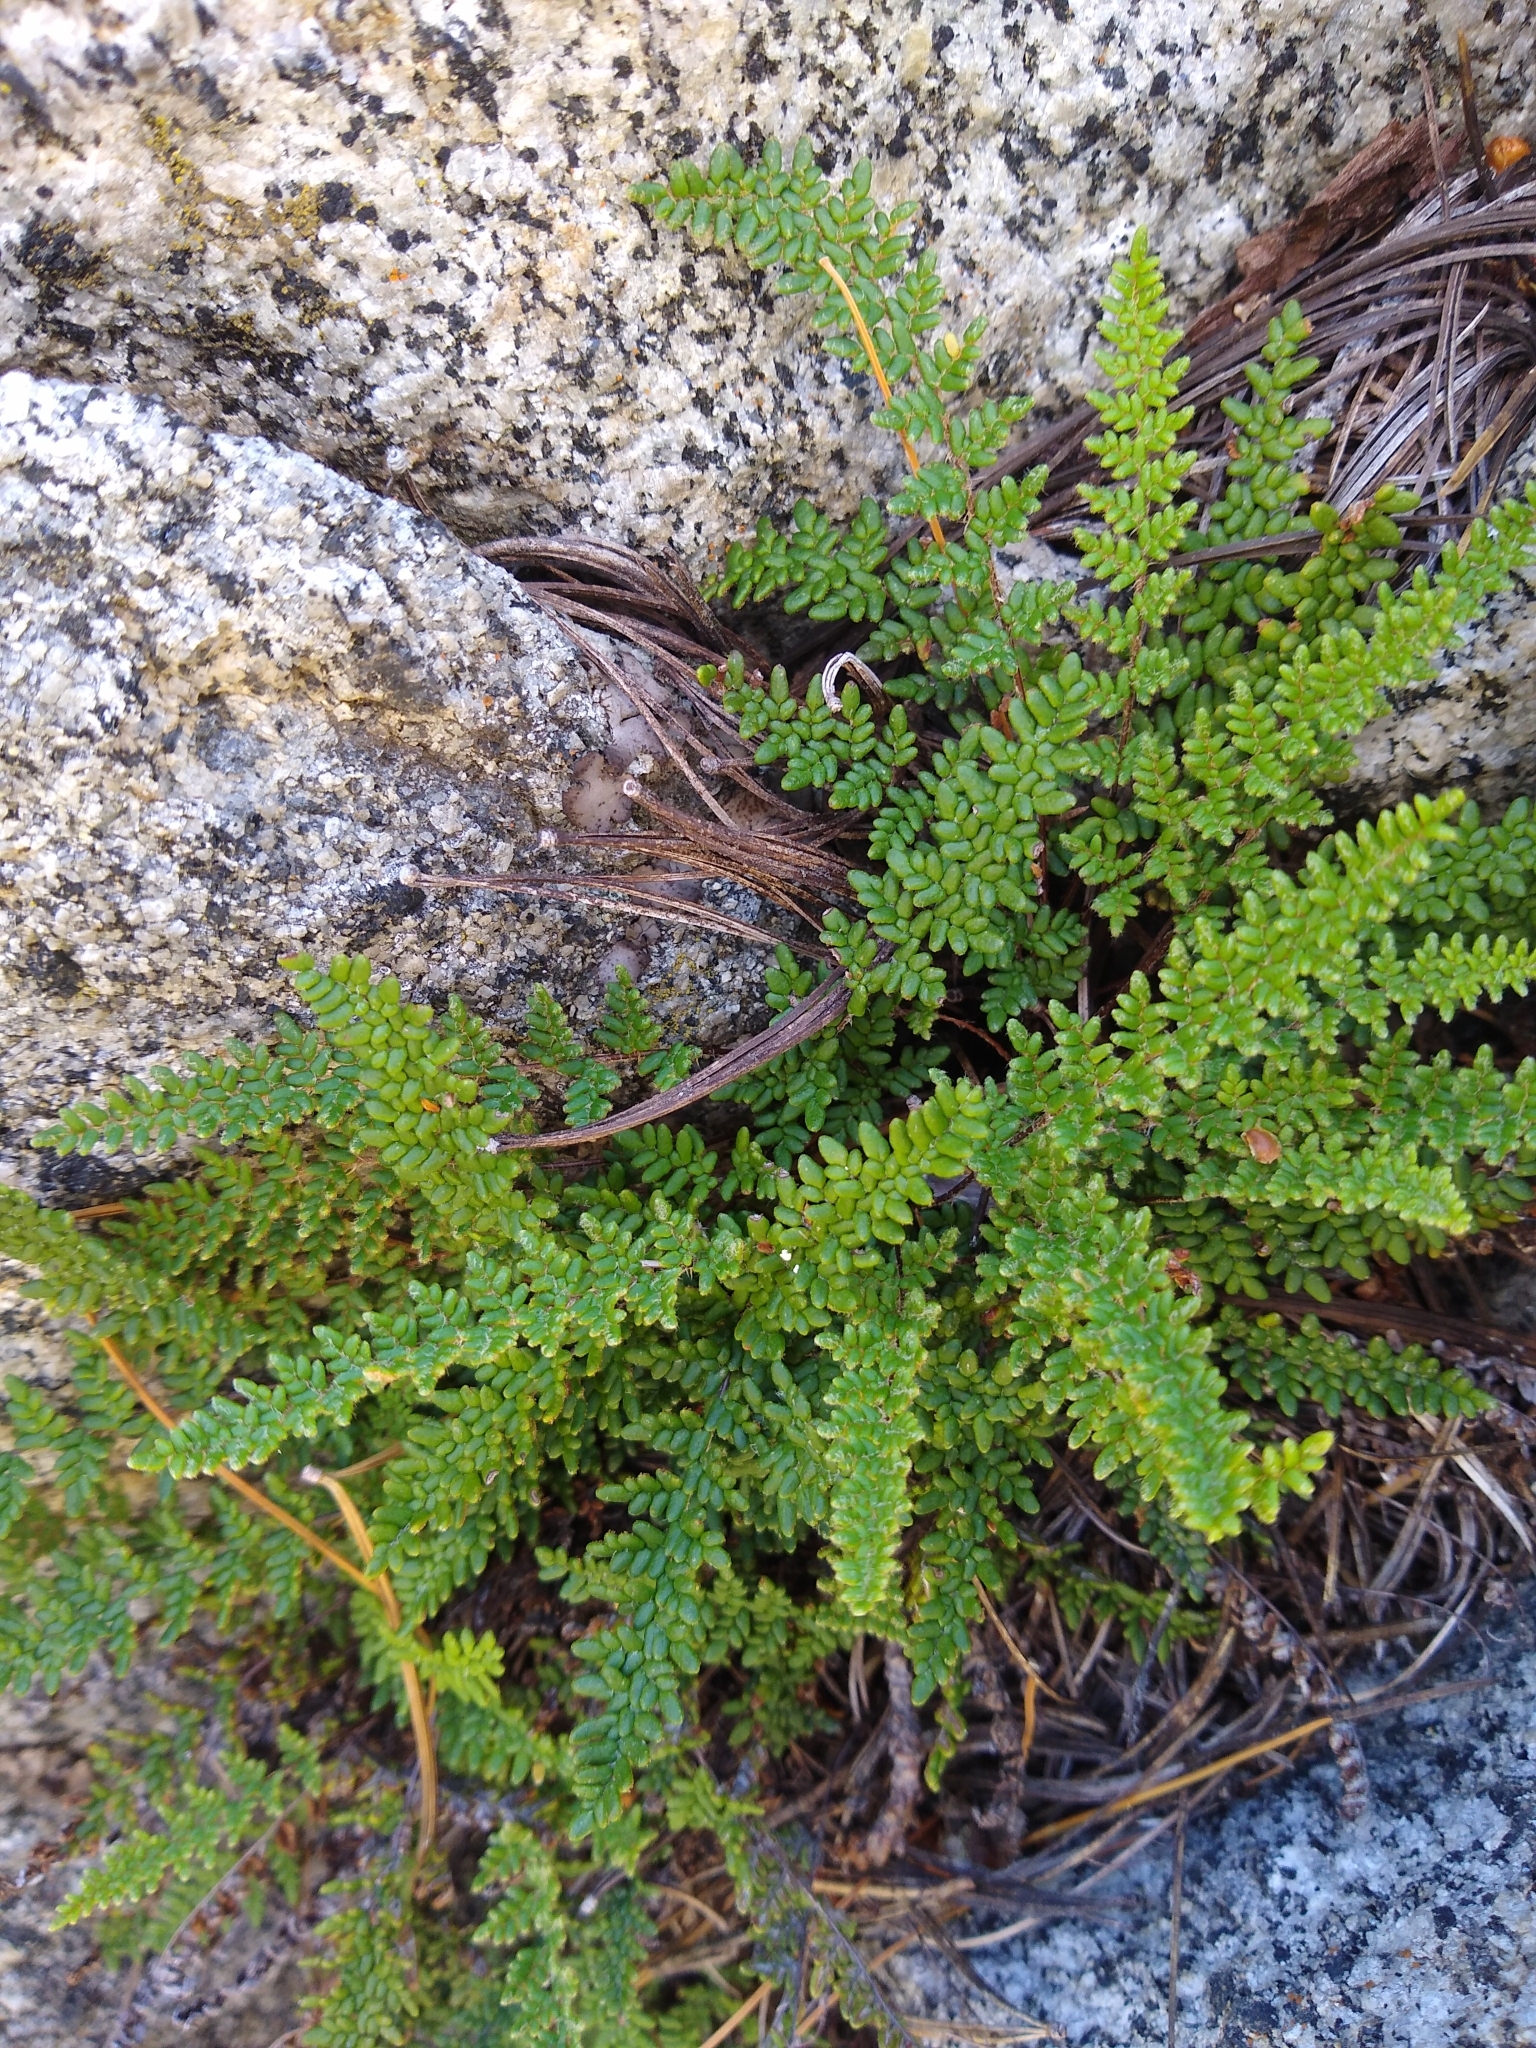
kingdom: Plantae
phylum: Tracheophyta
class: Polypodiopsida
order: Polypodiales
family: Pteridaceae
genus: Myriopteris
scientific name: Myriopteris gracillima
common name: Lace fern
